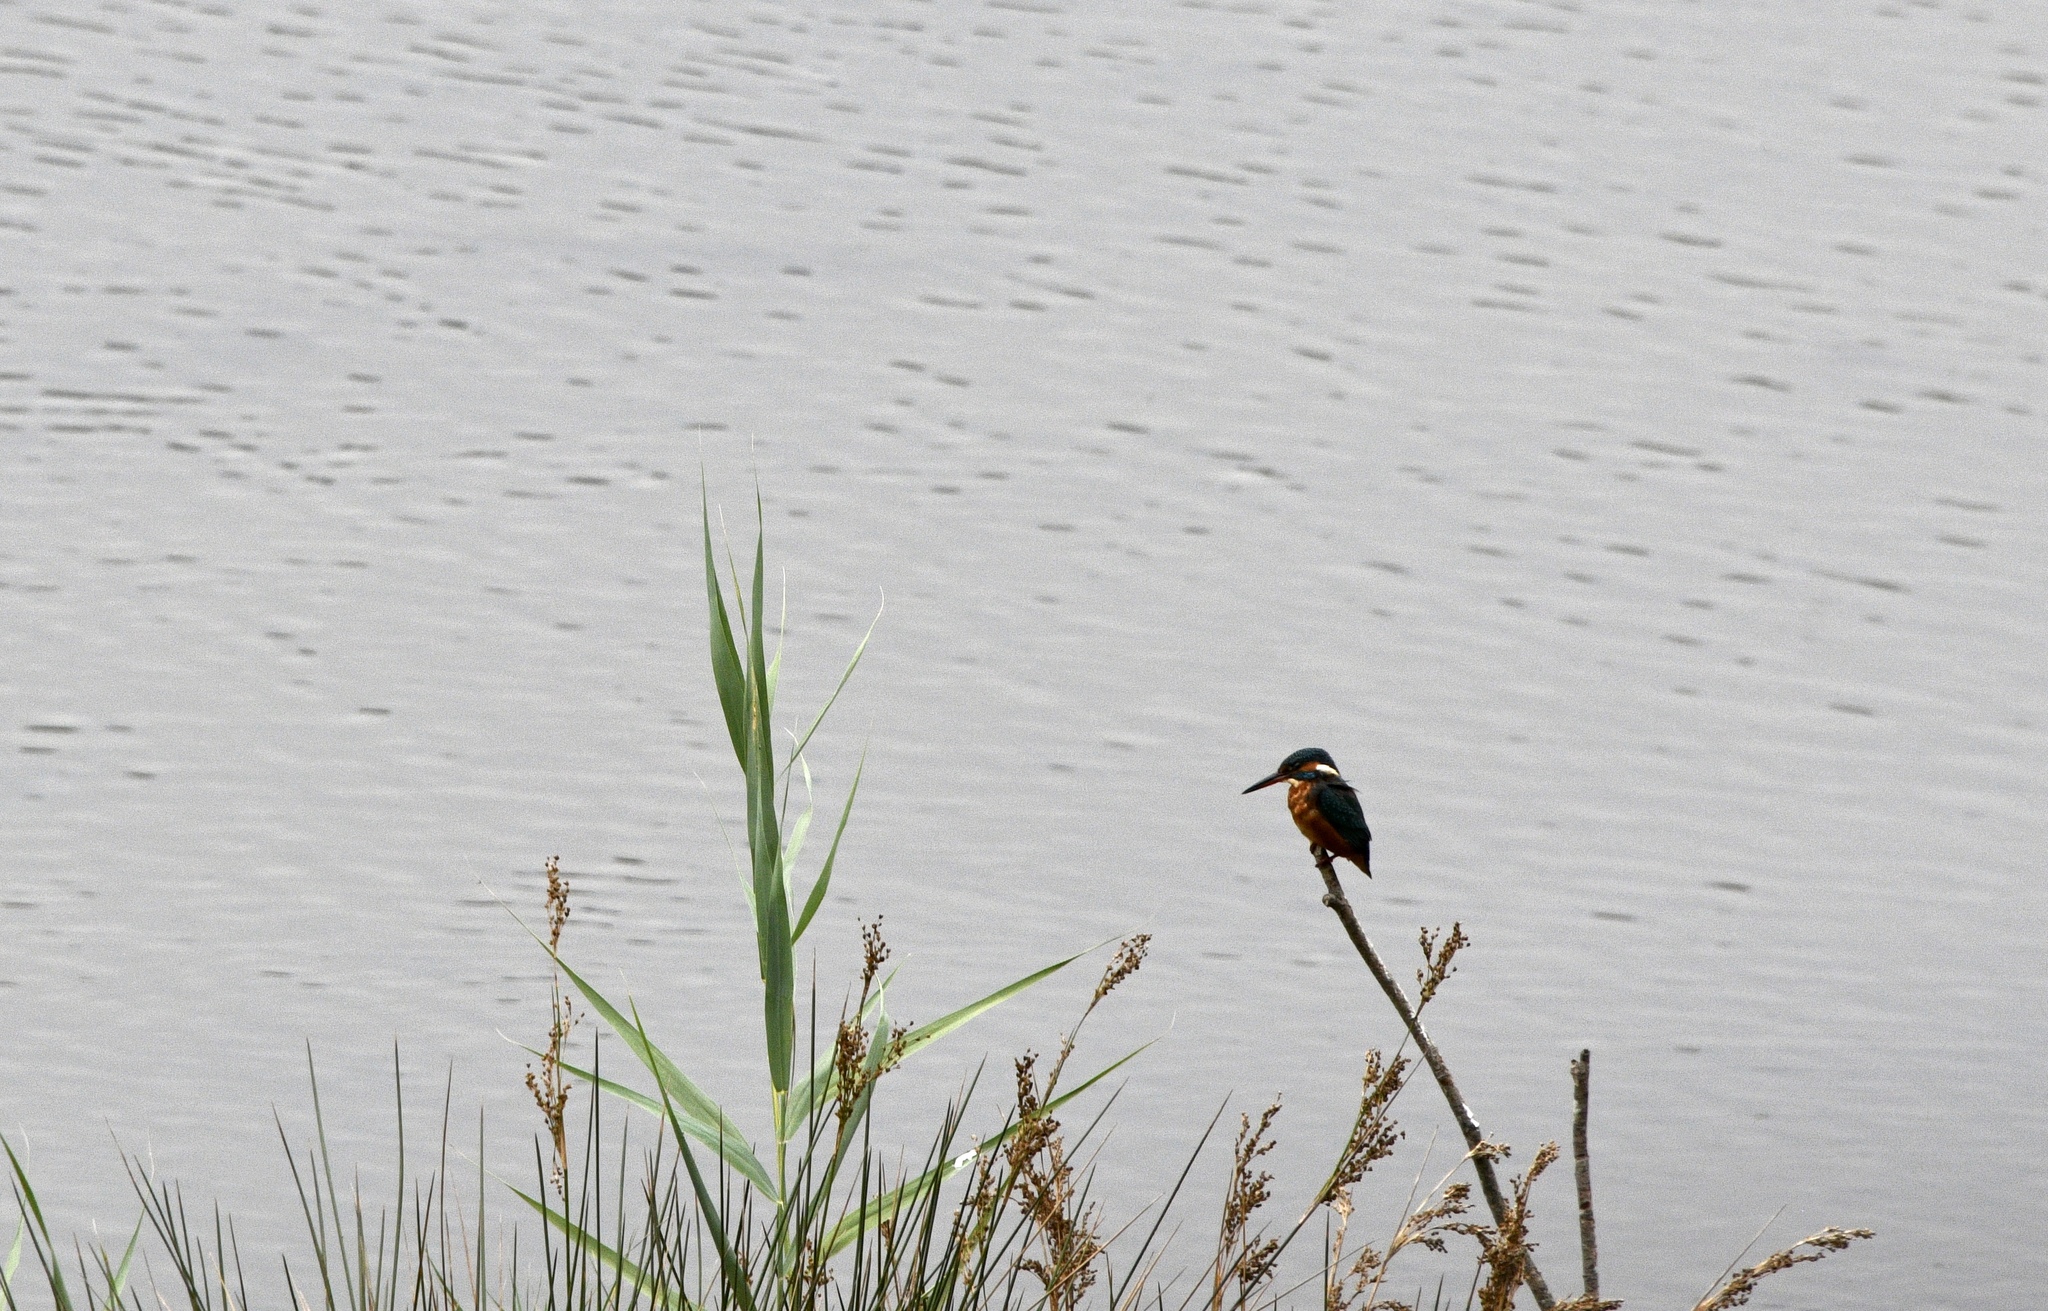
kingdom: Animalia
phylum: Chordata
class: Aves
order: Coraciiformes
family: Alcedinidae
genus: Alcedo
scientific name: Alcedo atthis
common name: Common kingfisher
